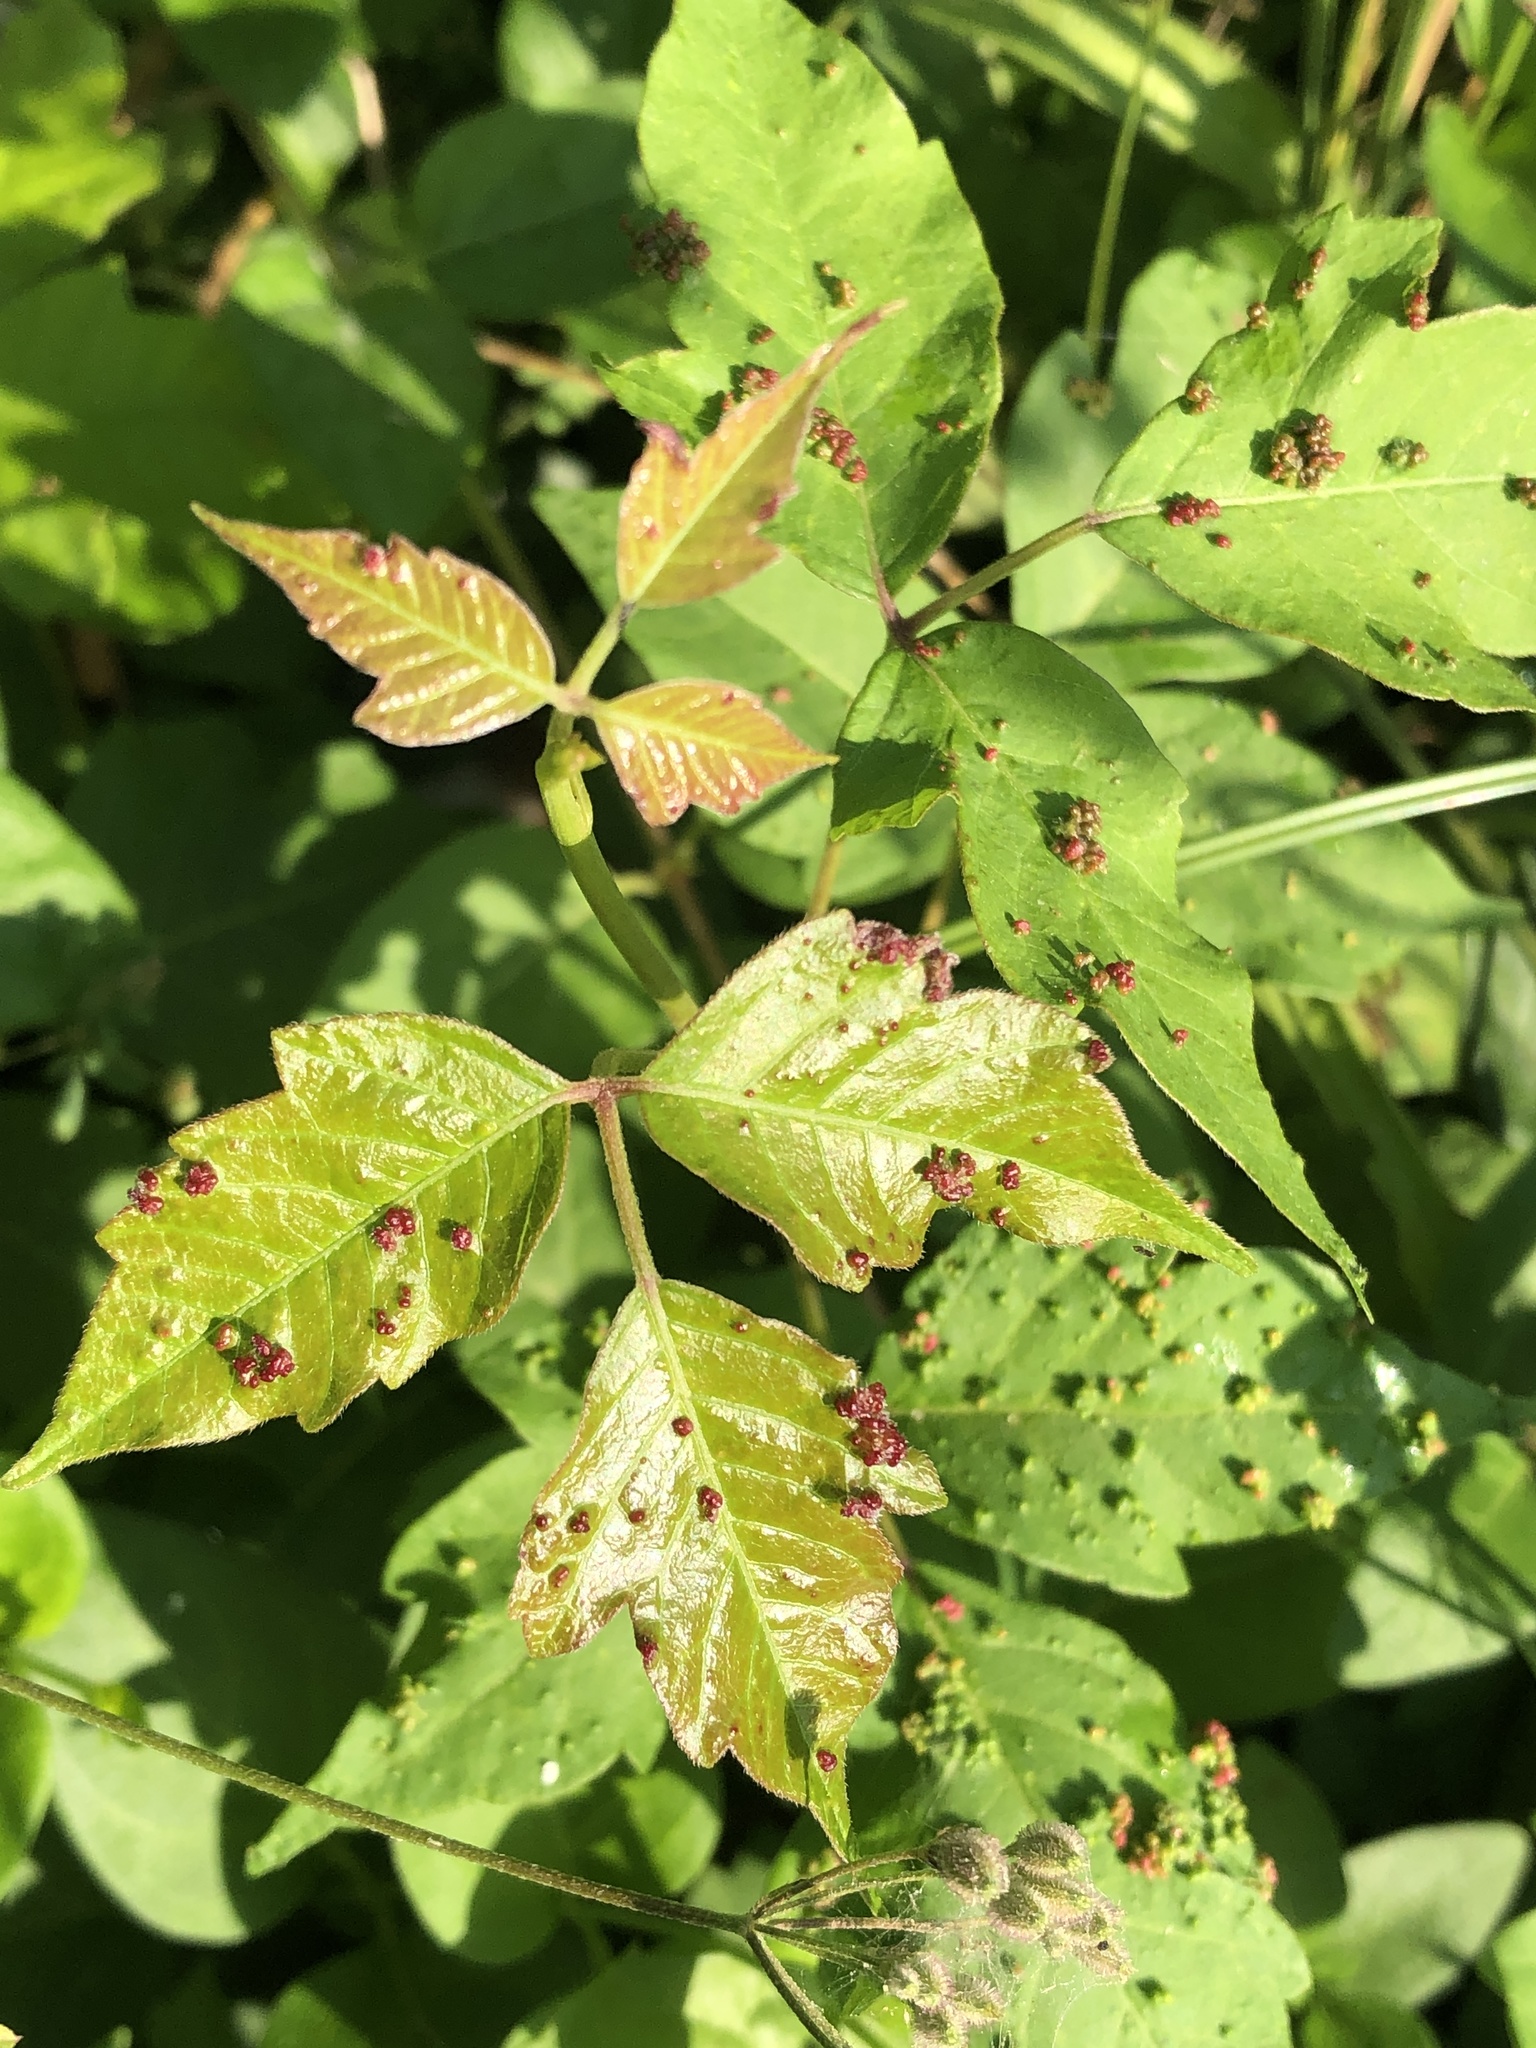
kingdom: Animalia
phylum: Arthropoda
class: Arachnida
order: Trombidiformes
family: Eriophyidae
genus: Aculops
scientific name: Aculops
